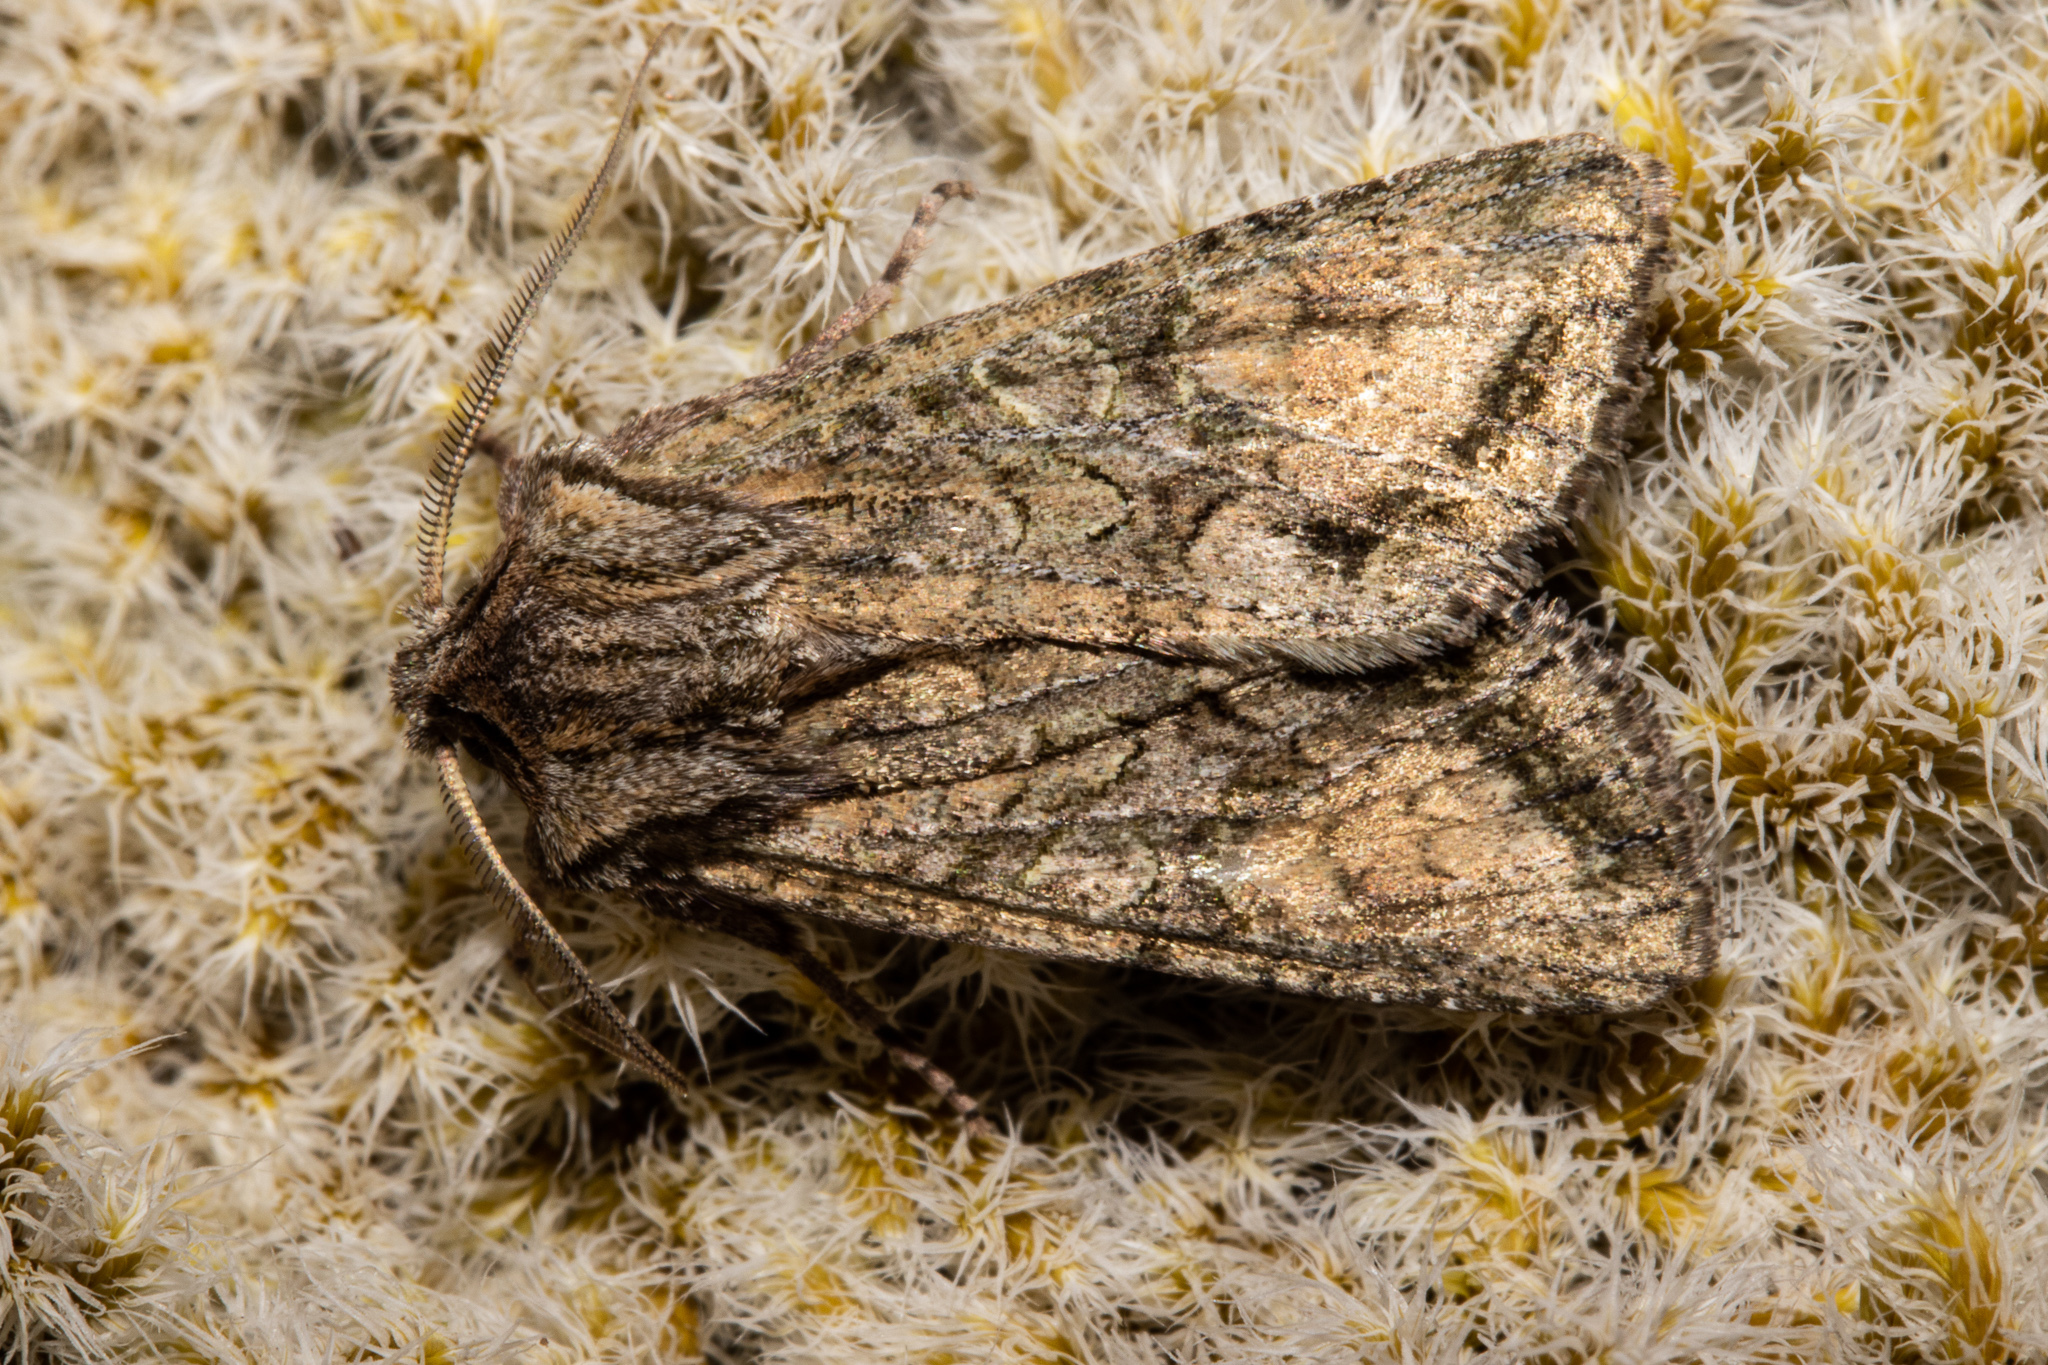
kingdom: Animalia
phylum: Arthropoda
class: Insecta
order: Lepidoptera
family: Noctuidae
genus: Ichneutica
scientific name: Ichneutica mutans
